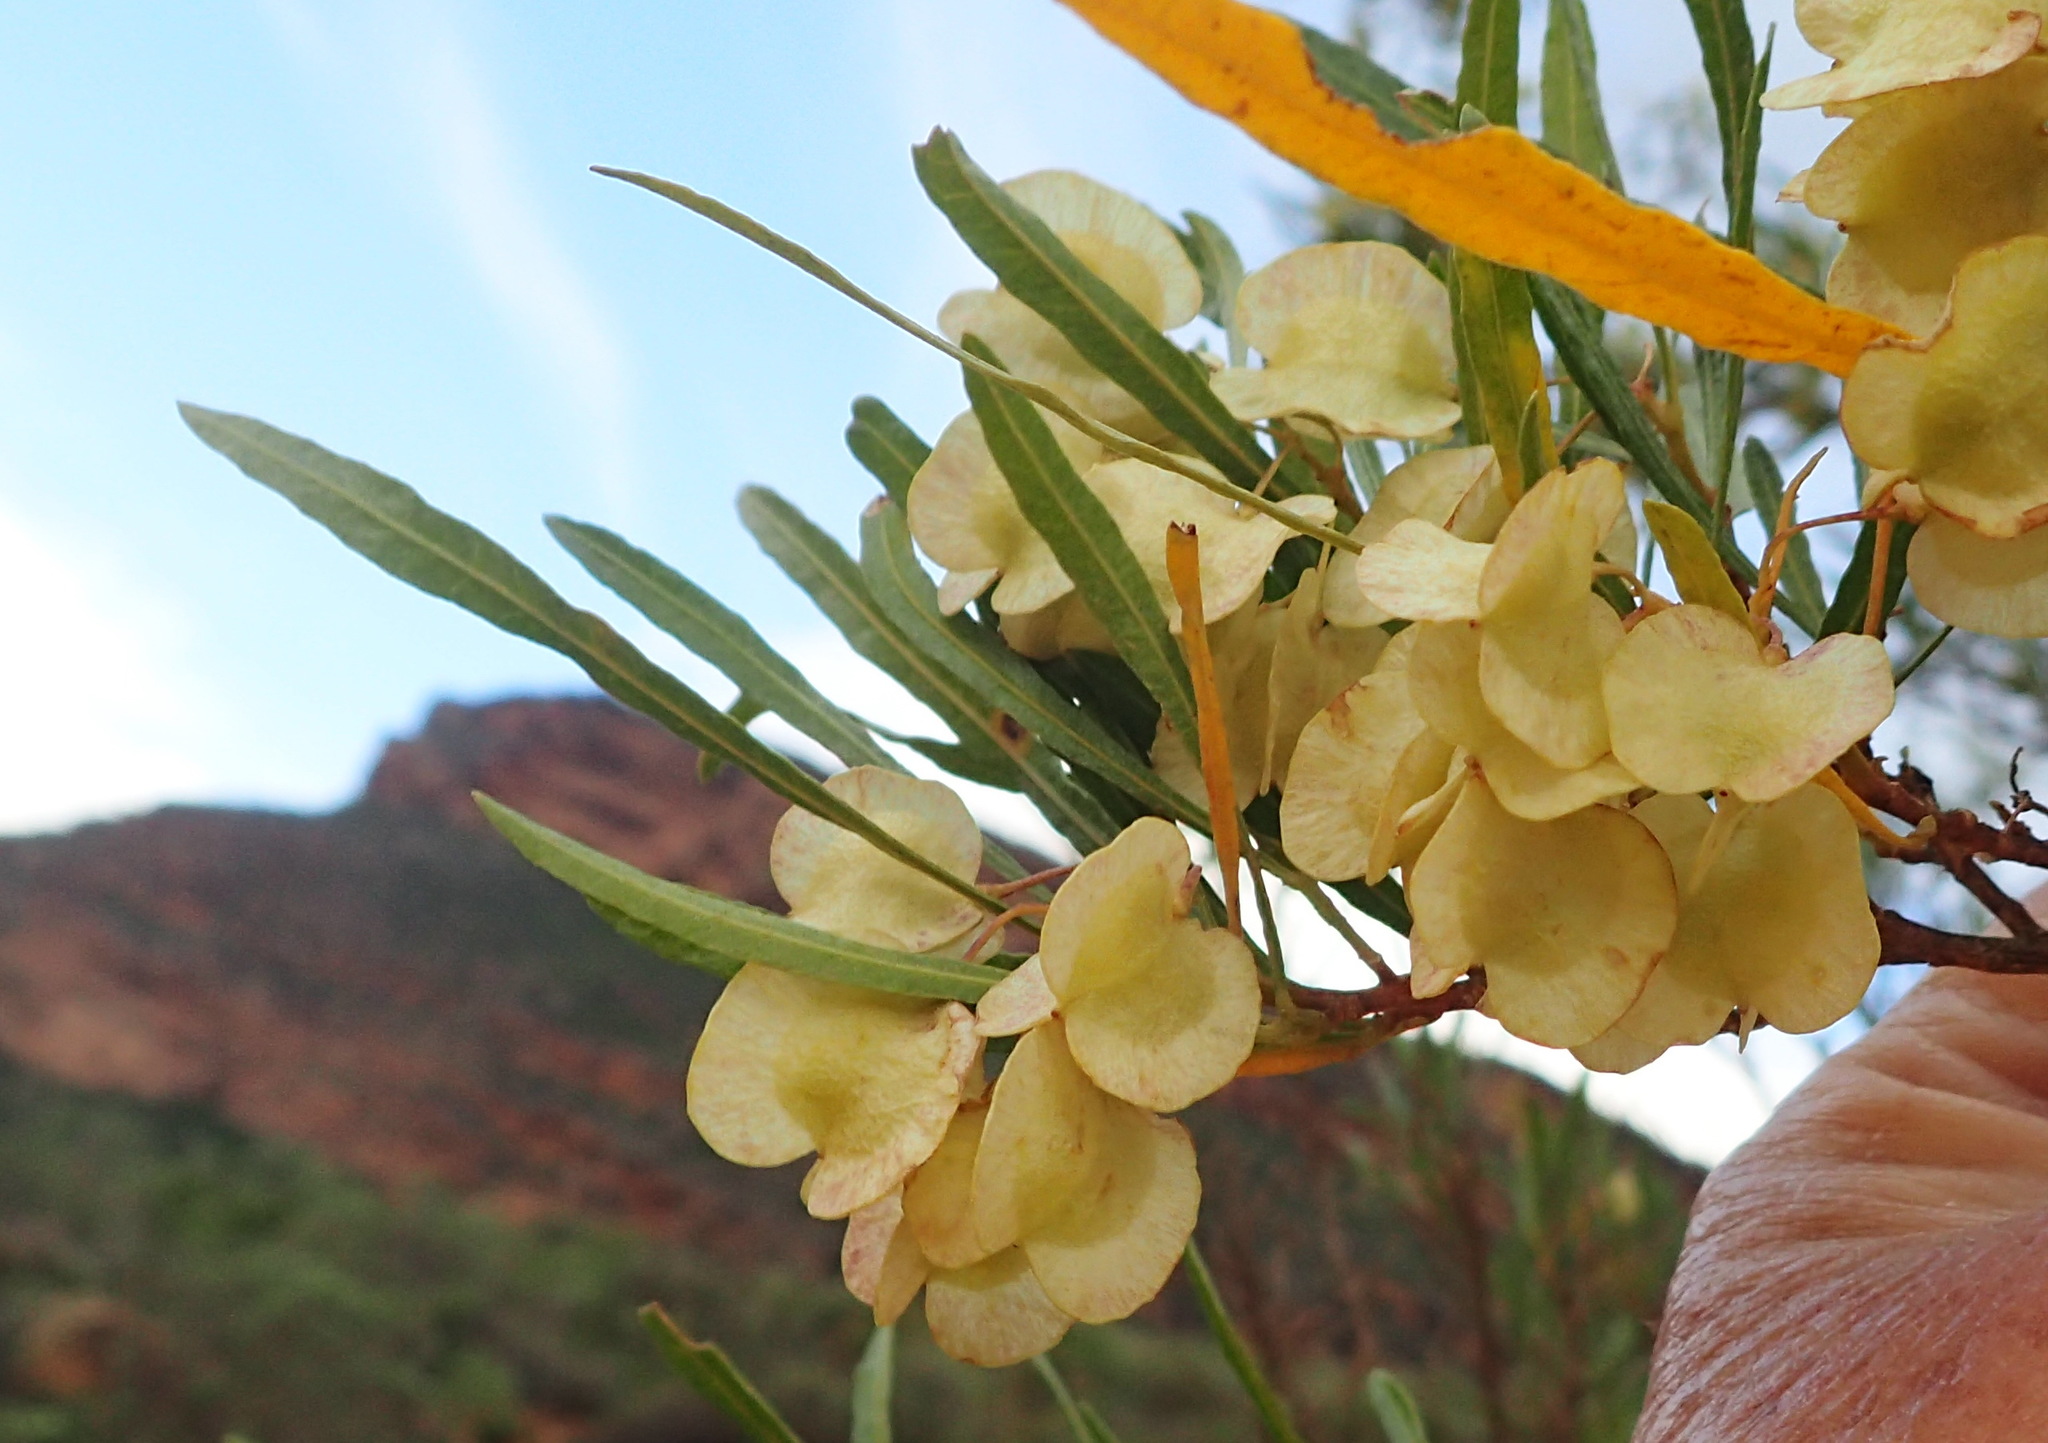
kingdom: Plantae
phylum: Tracheophyta
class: Magnoliopsida
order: Sapindales
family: Sapindaceae
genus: Dodonaea
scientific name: Dodonaea viscosa
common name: Hopbush
